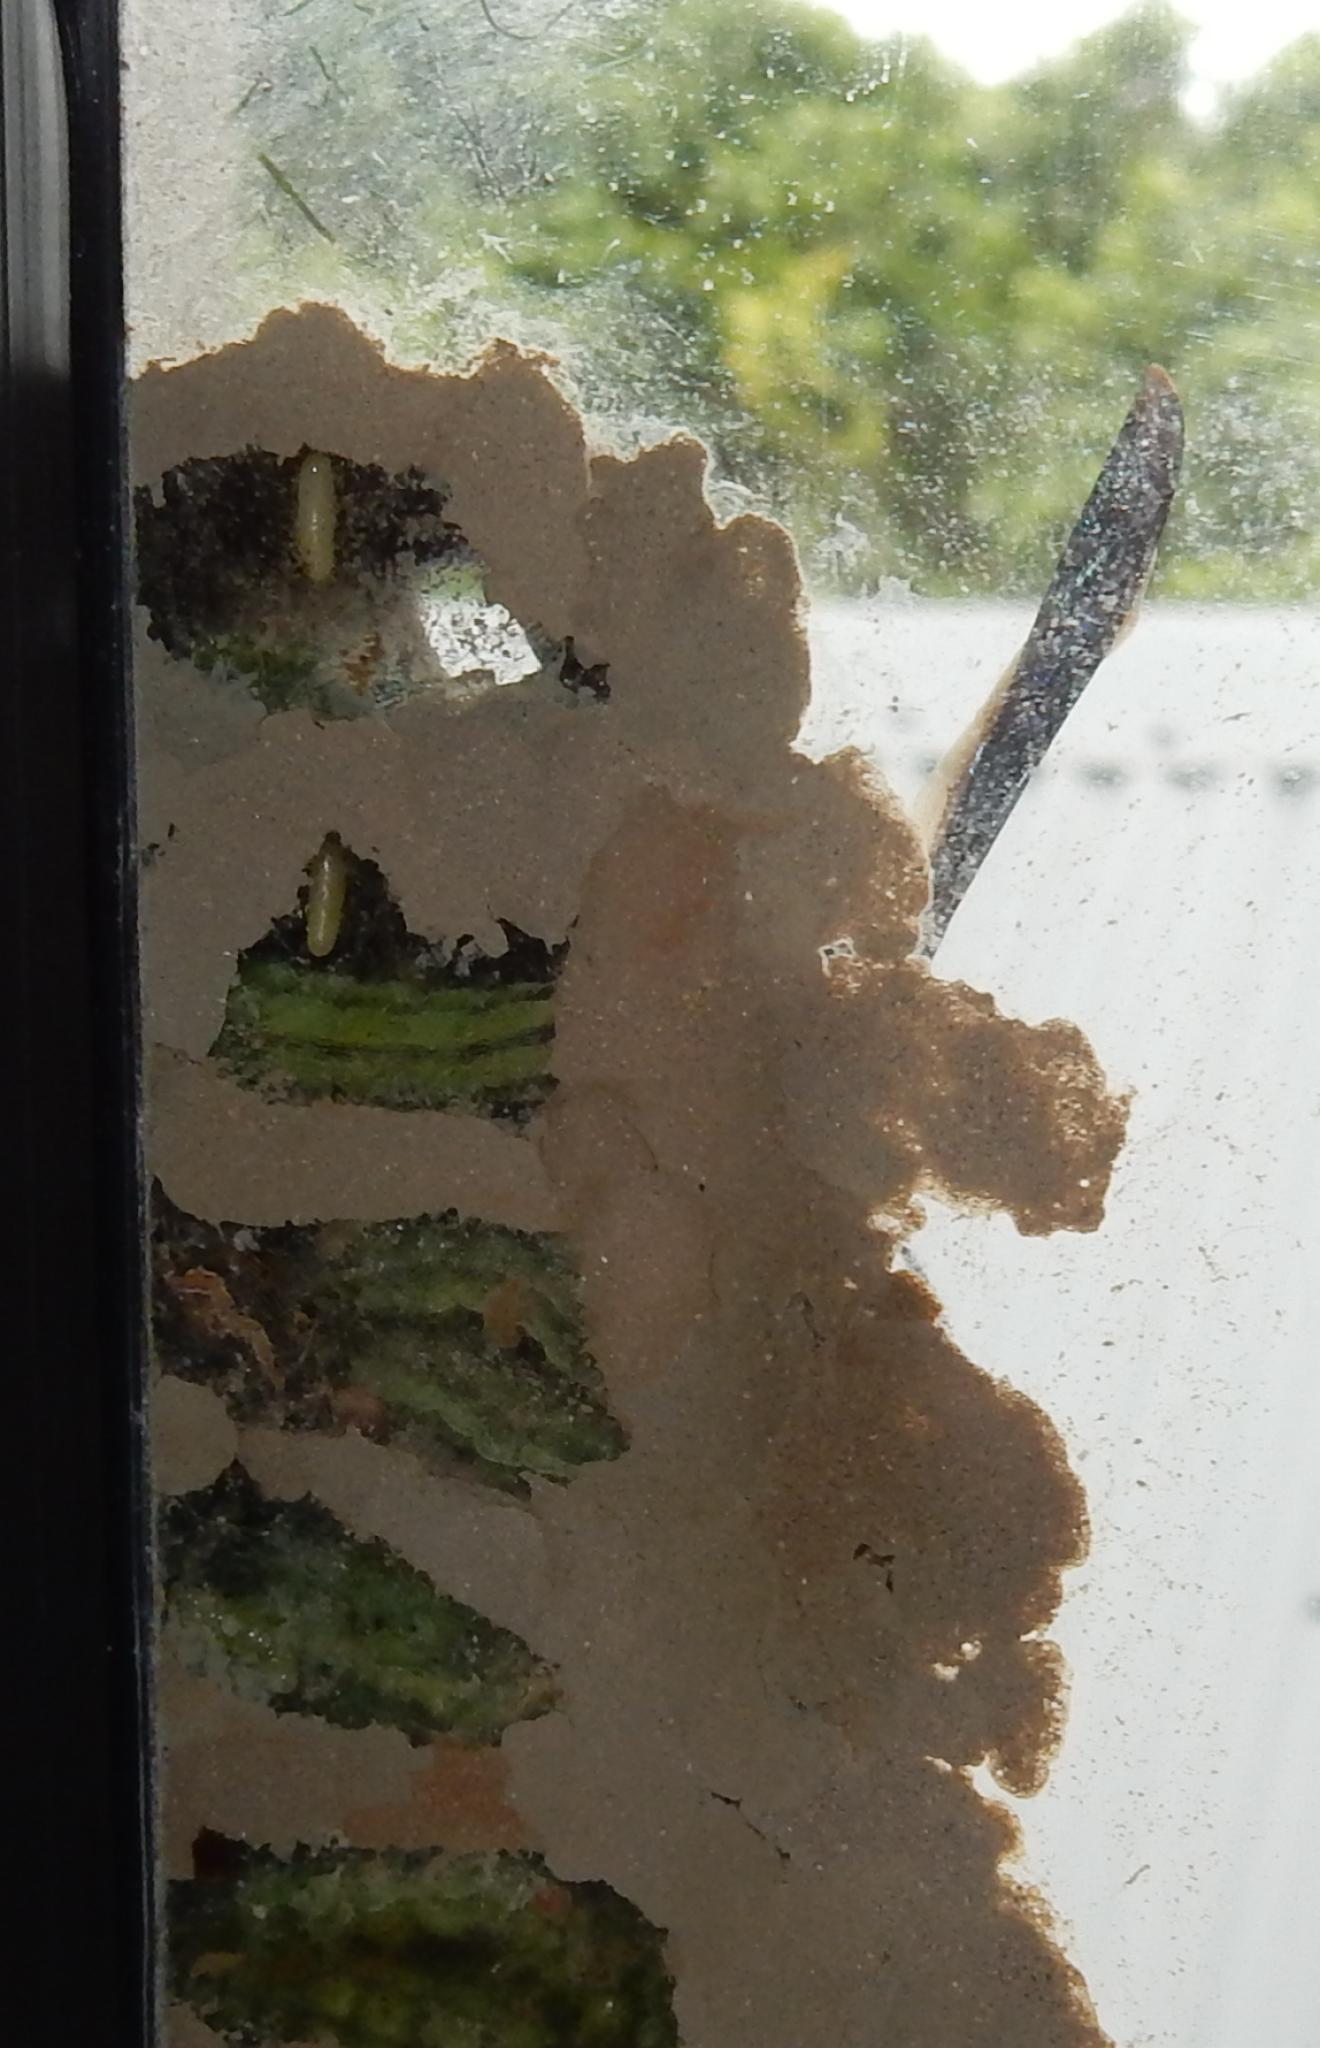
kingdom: Animalia
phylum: Arthropoda
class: Insecta
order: Hymenoptera
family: Eumenidae
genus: Delta
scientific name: Delta bonellii
